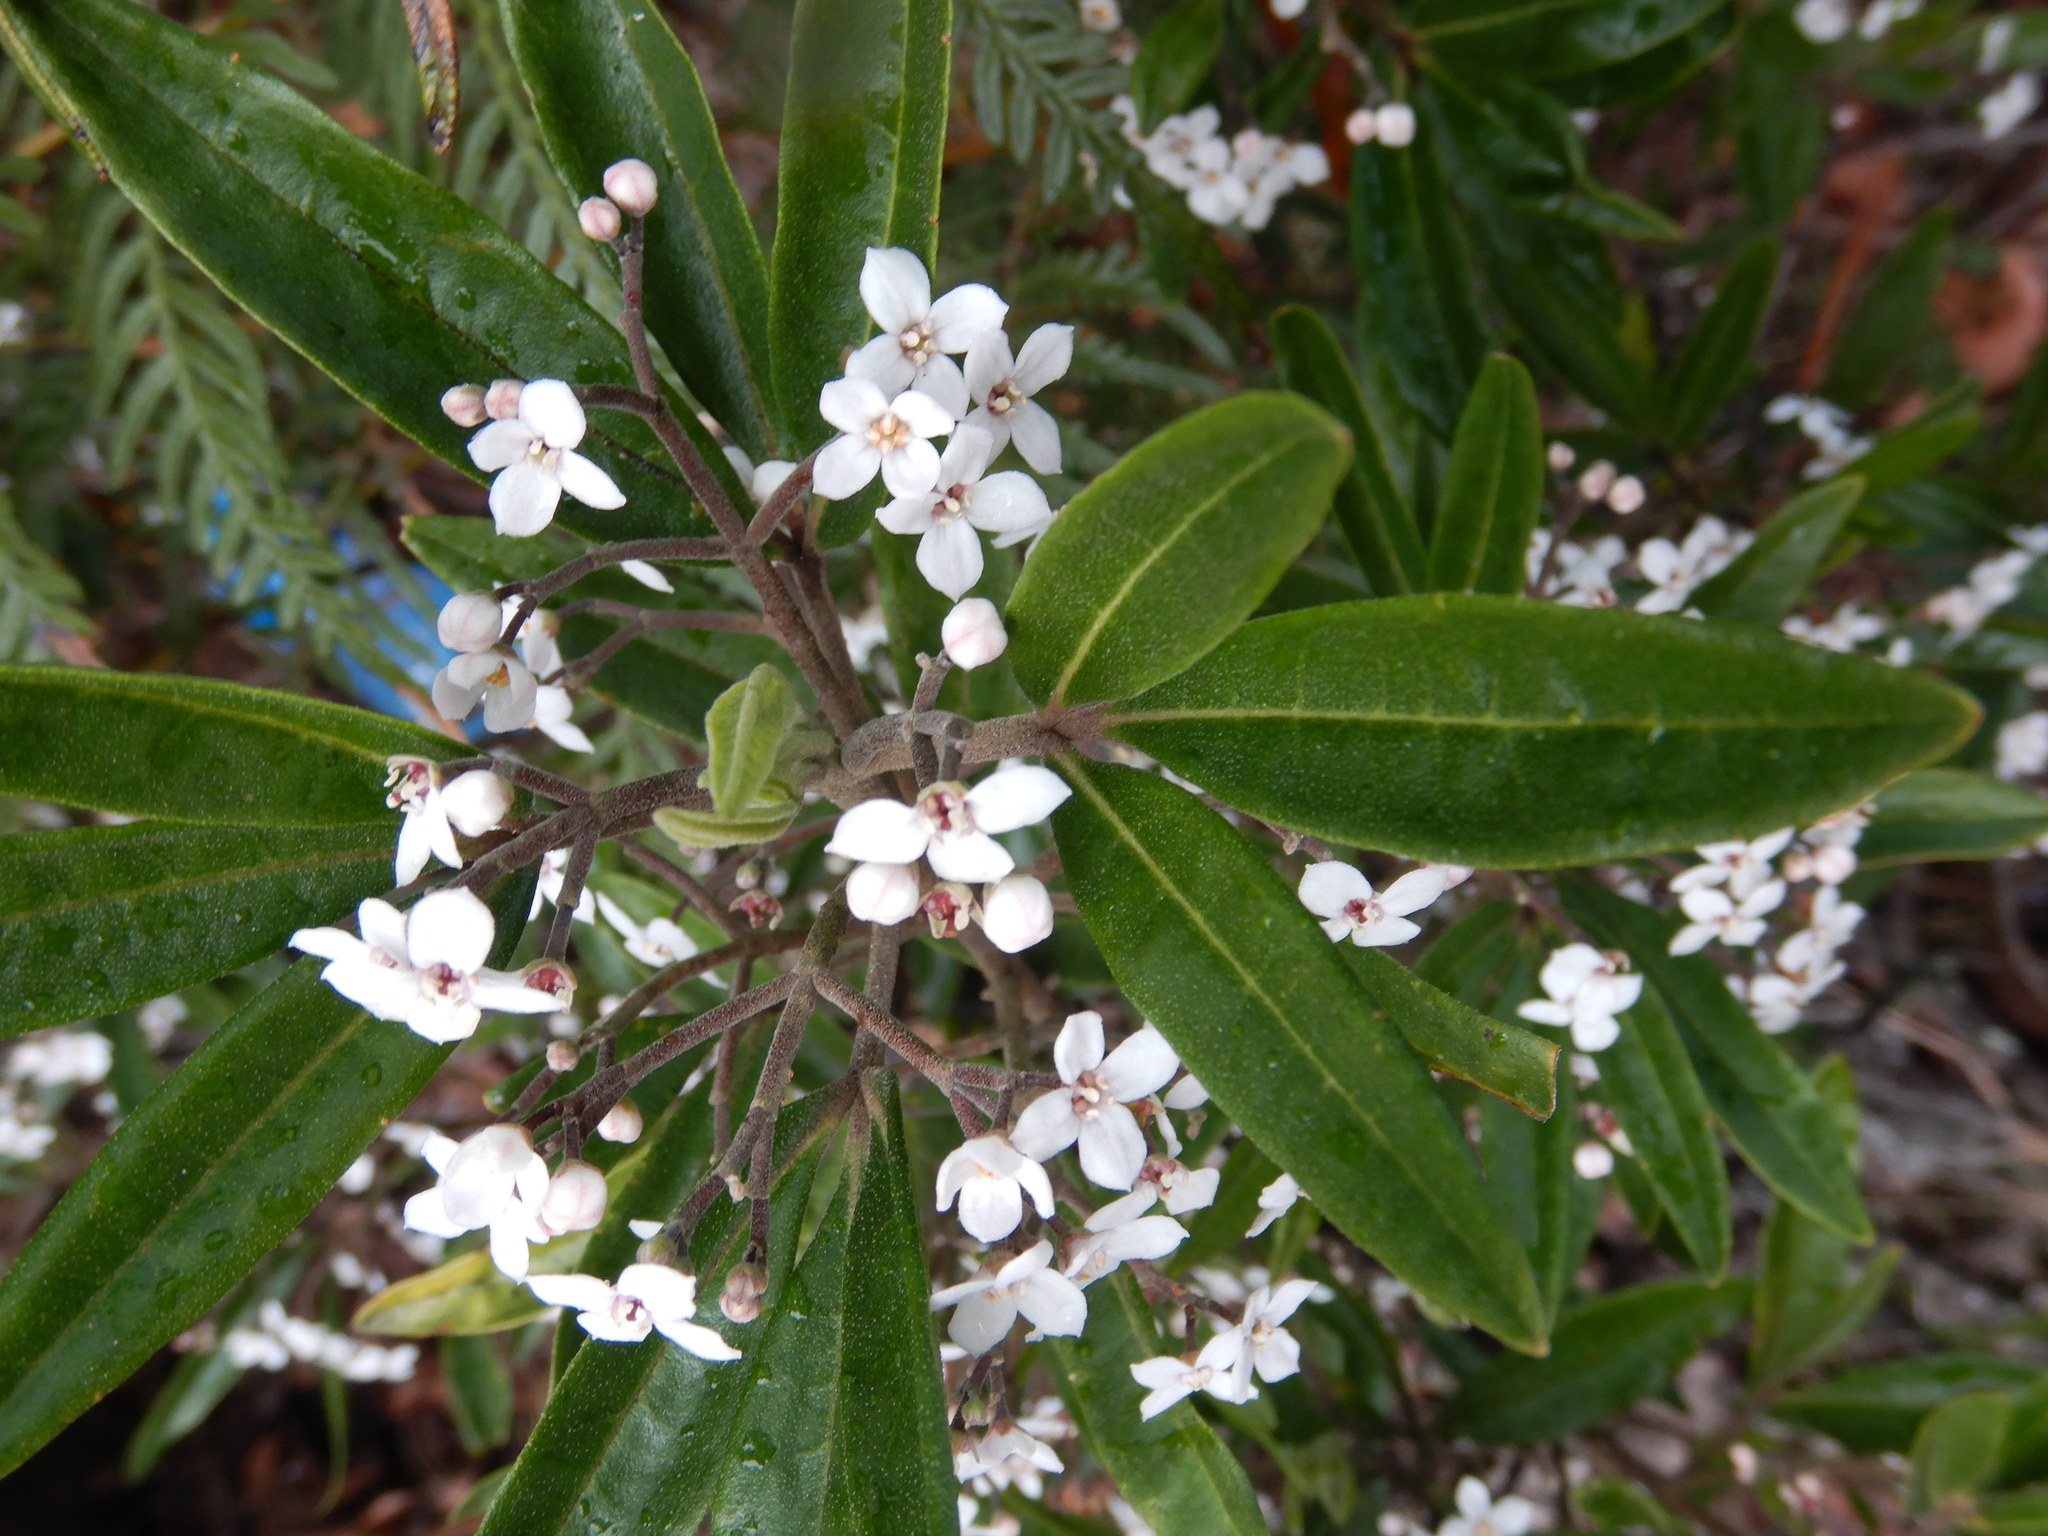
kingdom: Plantae
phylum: Tracheophyta
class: Magnoliopsida
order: Sapindales
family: Rutaceae
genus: Zieria
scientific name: Zieria arborescens
